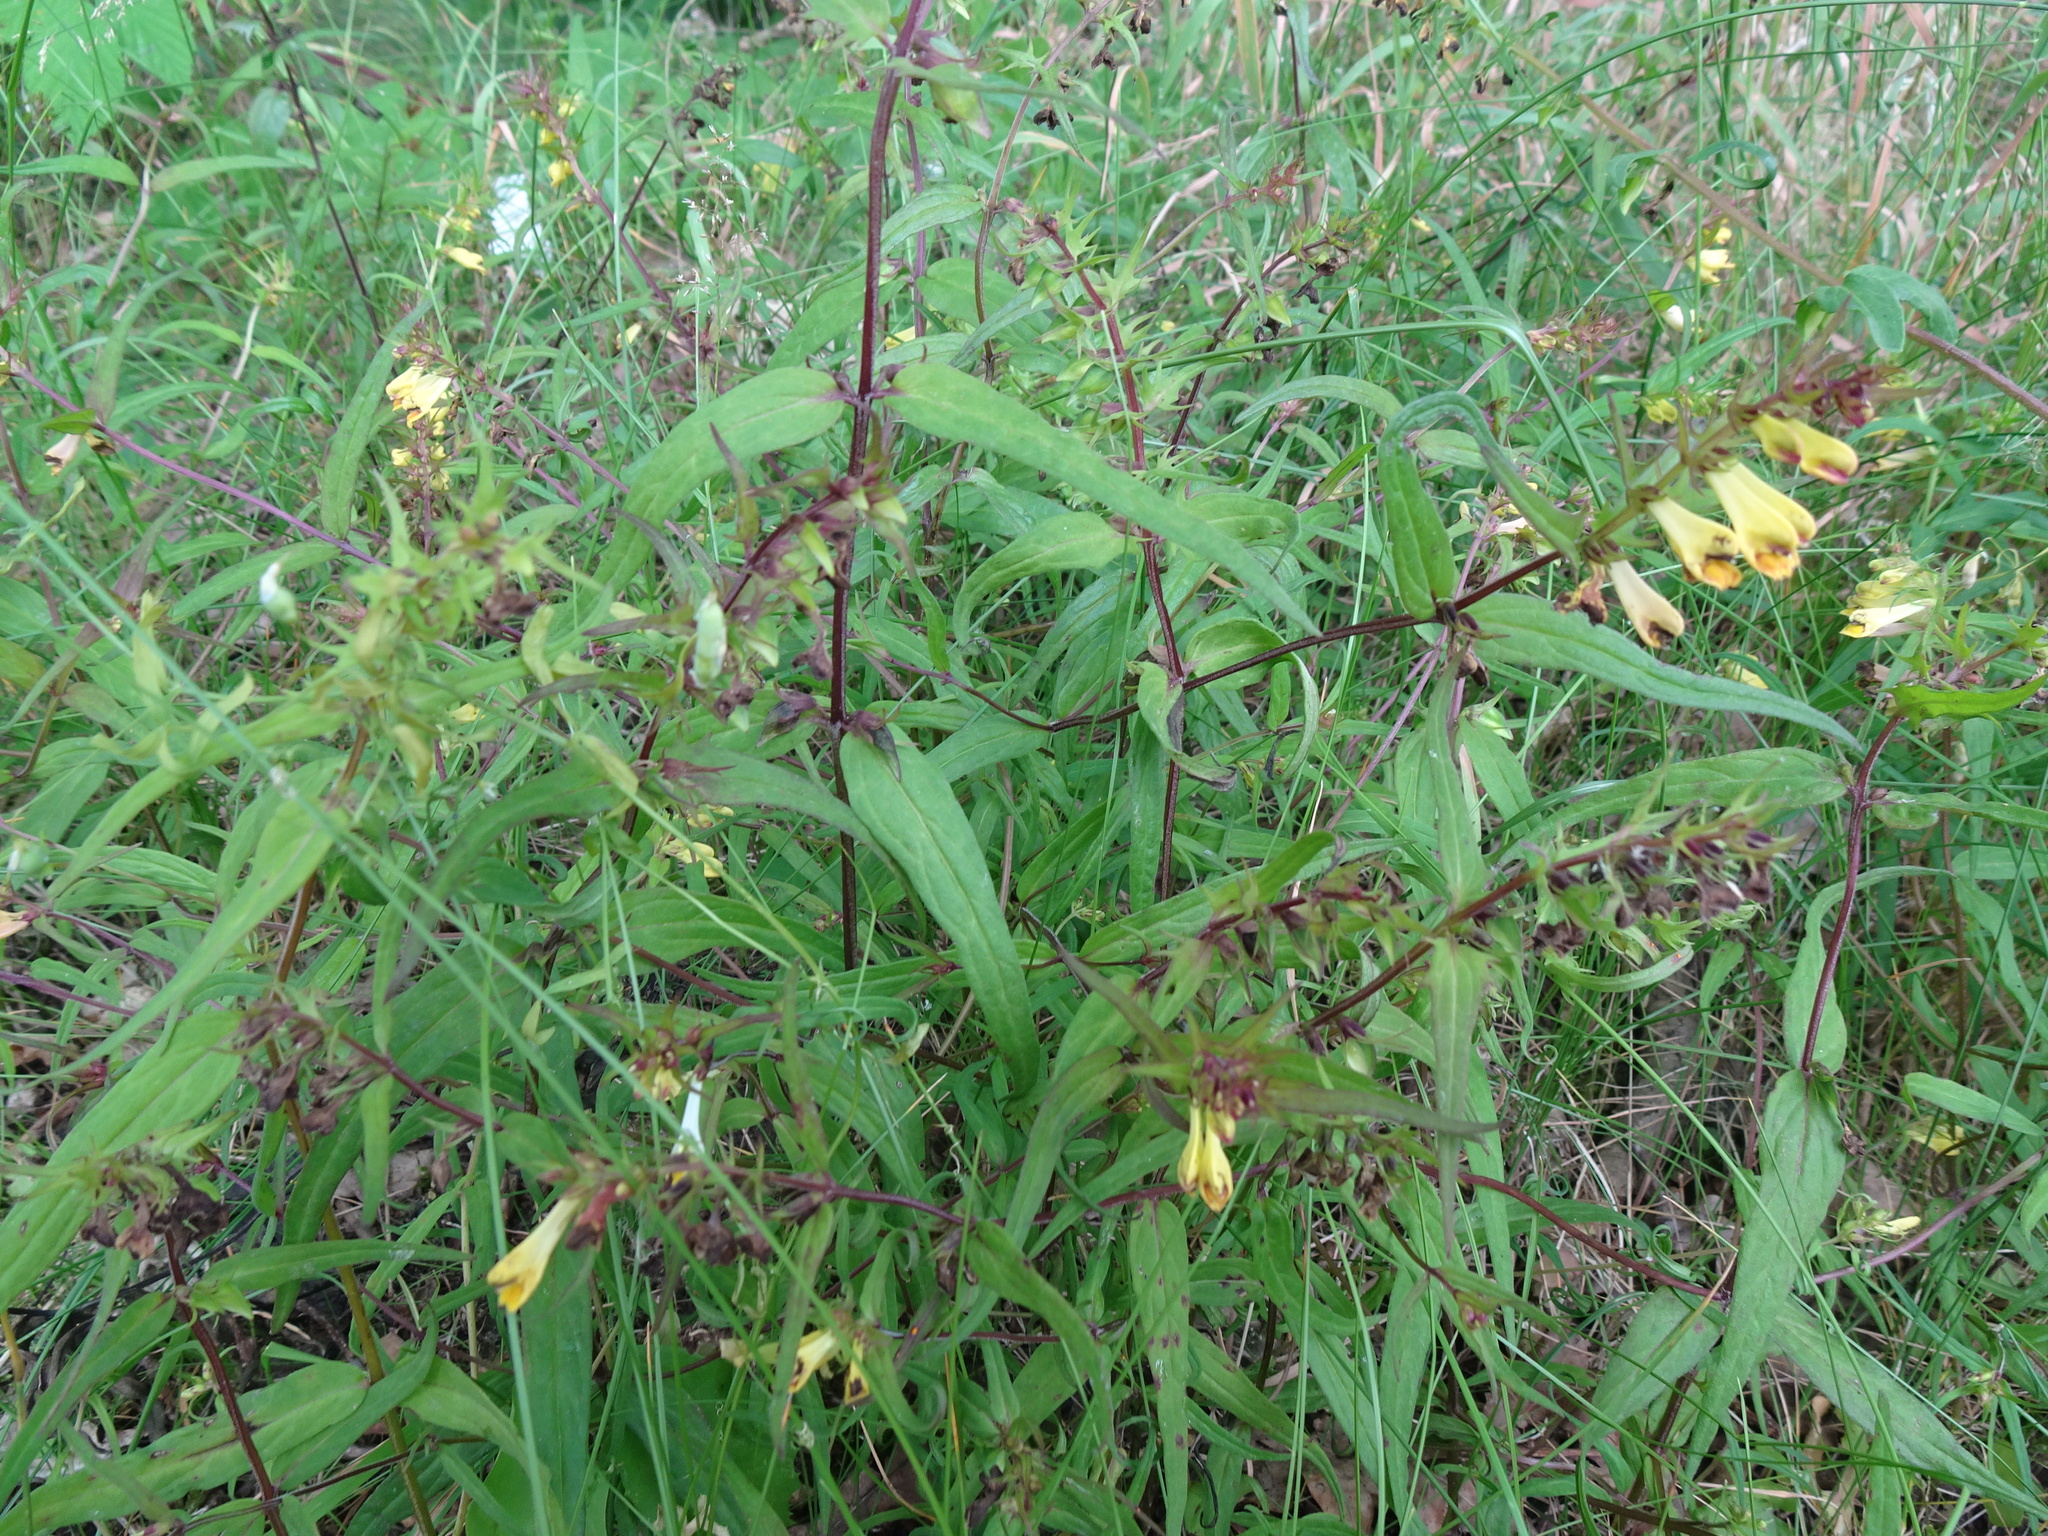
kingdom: Plantae
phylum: Tracheophyta
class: Magnoliopsida
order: Lamiales
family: Orobanchaceae
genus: Melampyrum
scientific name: Melampyrum pratense
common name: Common cow-wheat
